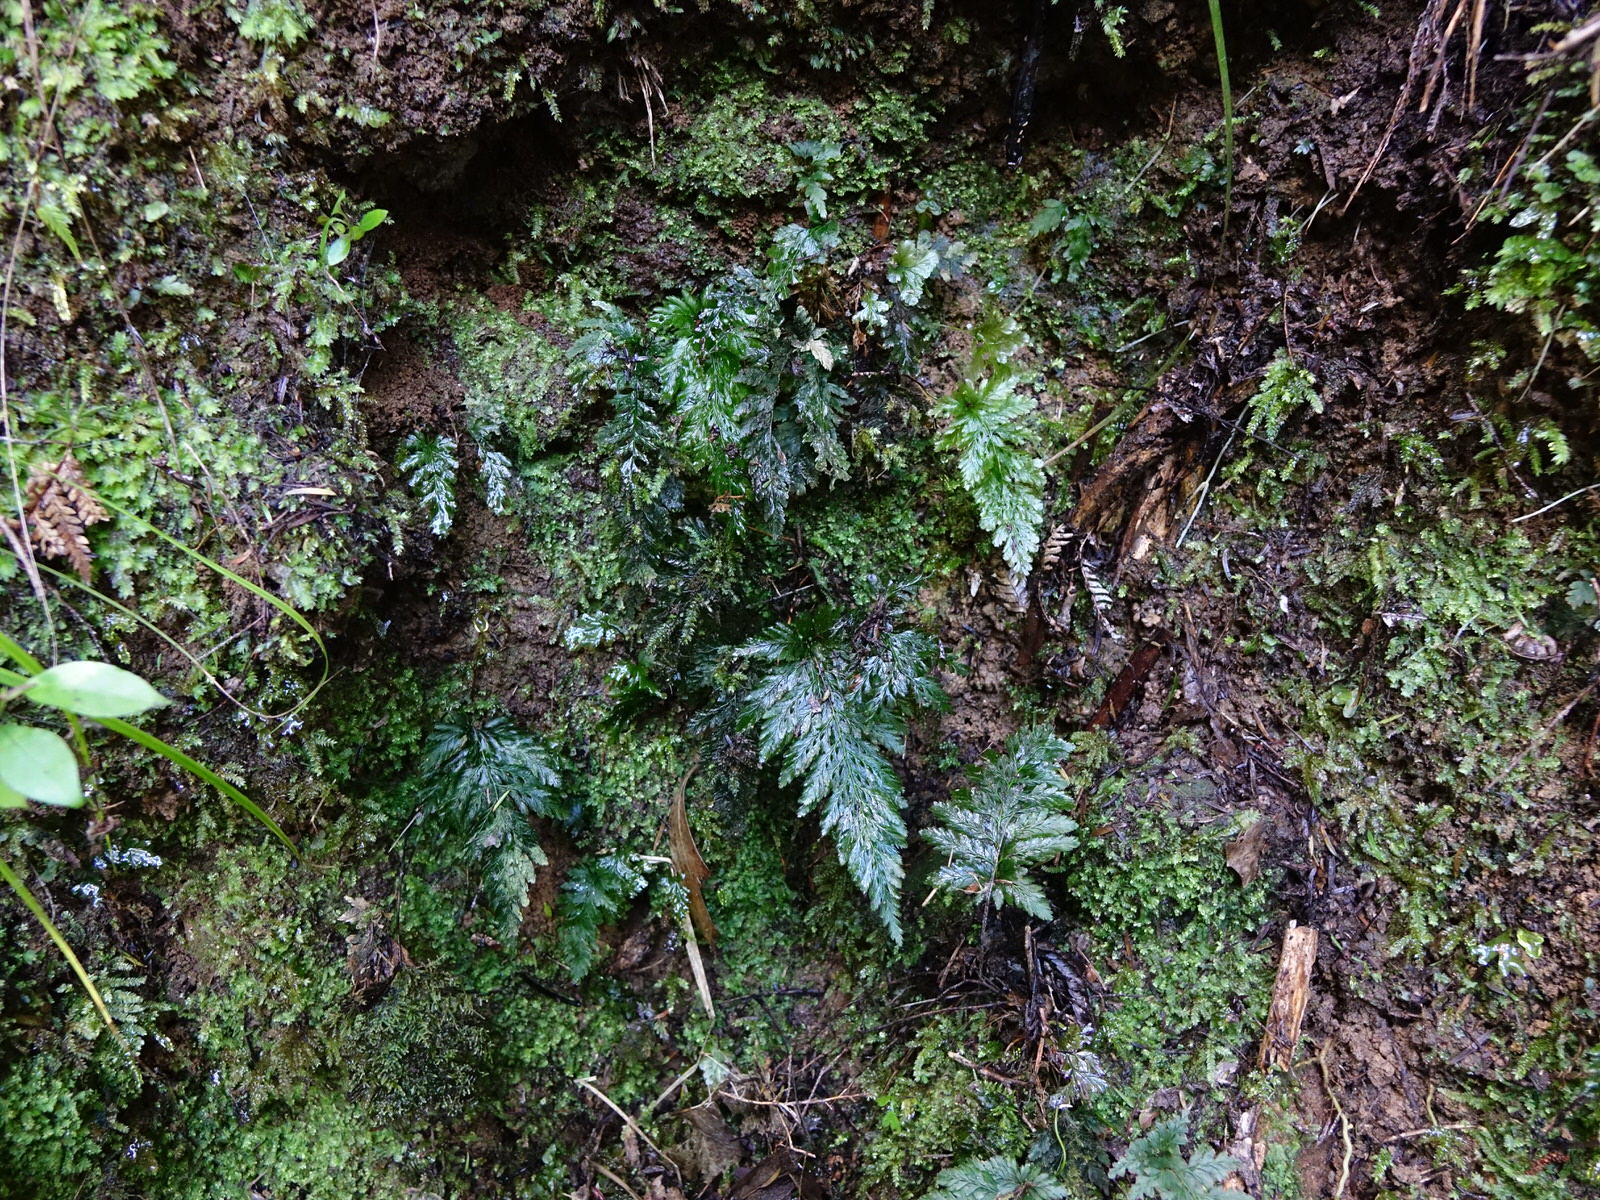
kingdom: Plantae
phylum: Tracheophyta
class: Polypodiopsida
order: Hymenophyllales
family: Hymenophyllaceae
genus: Abrodictyum
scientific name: Abrodictyum elongatum
